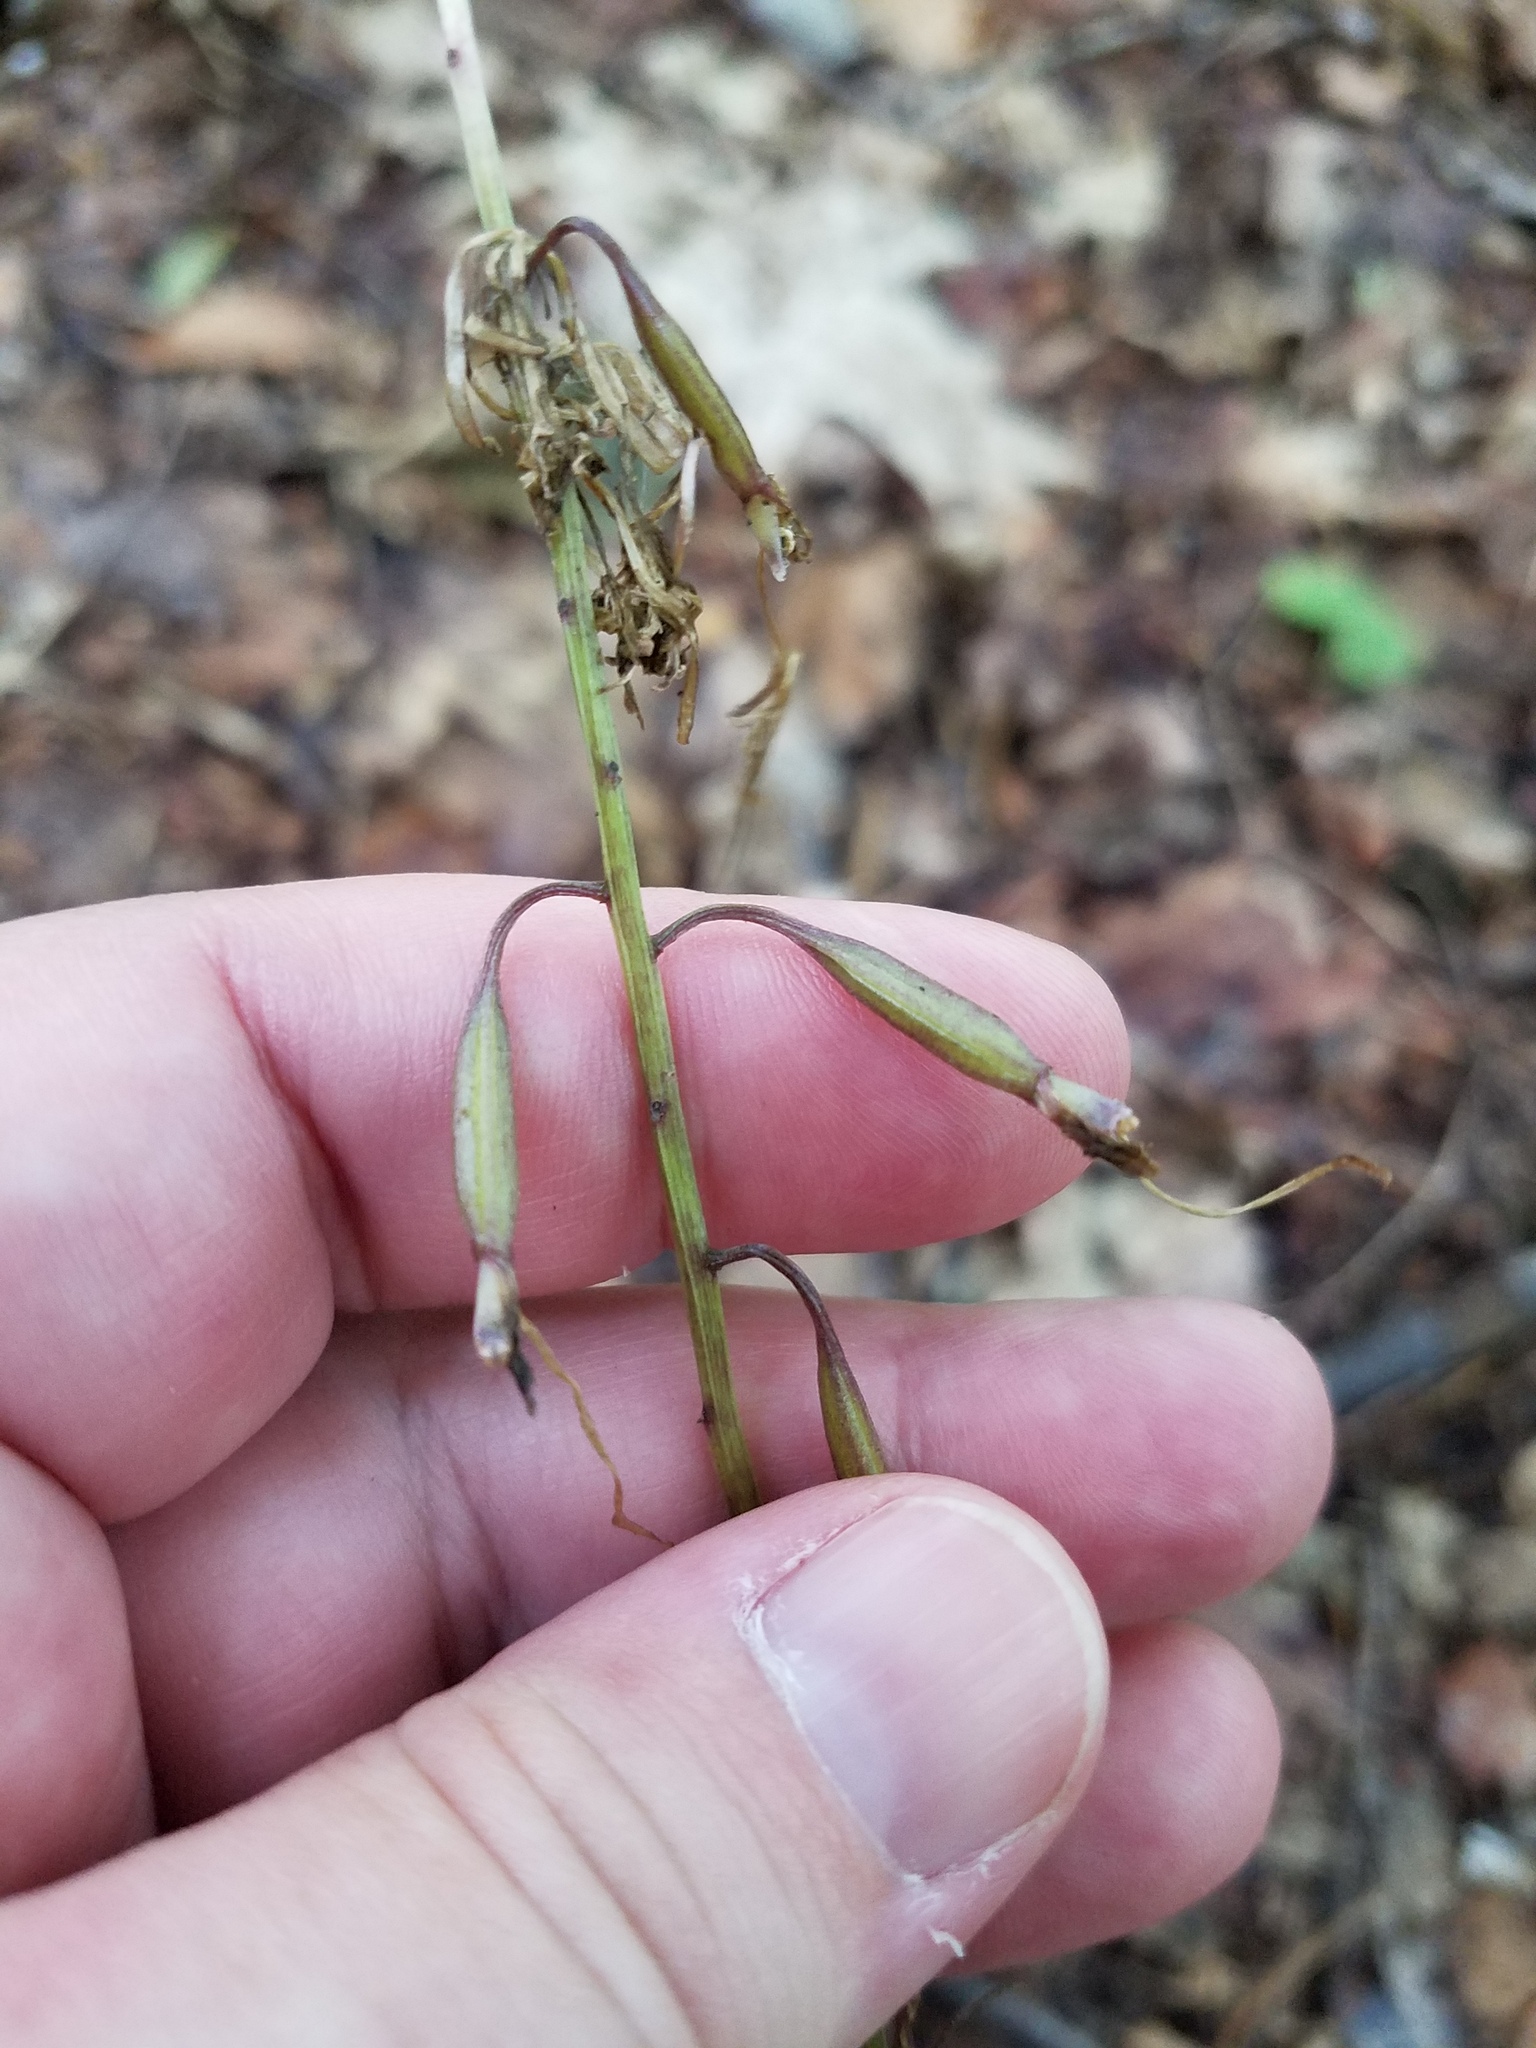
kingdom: Plantae
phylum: Tracheophyta
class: Liliopsida
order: Asparagales
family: Orchidaceae
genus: Tipularia
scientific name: Tipularia discolor
